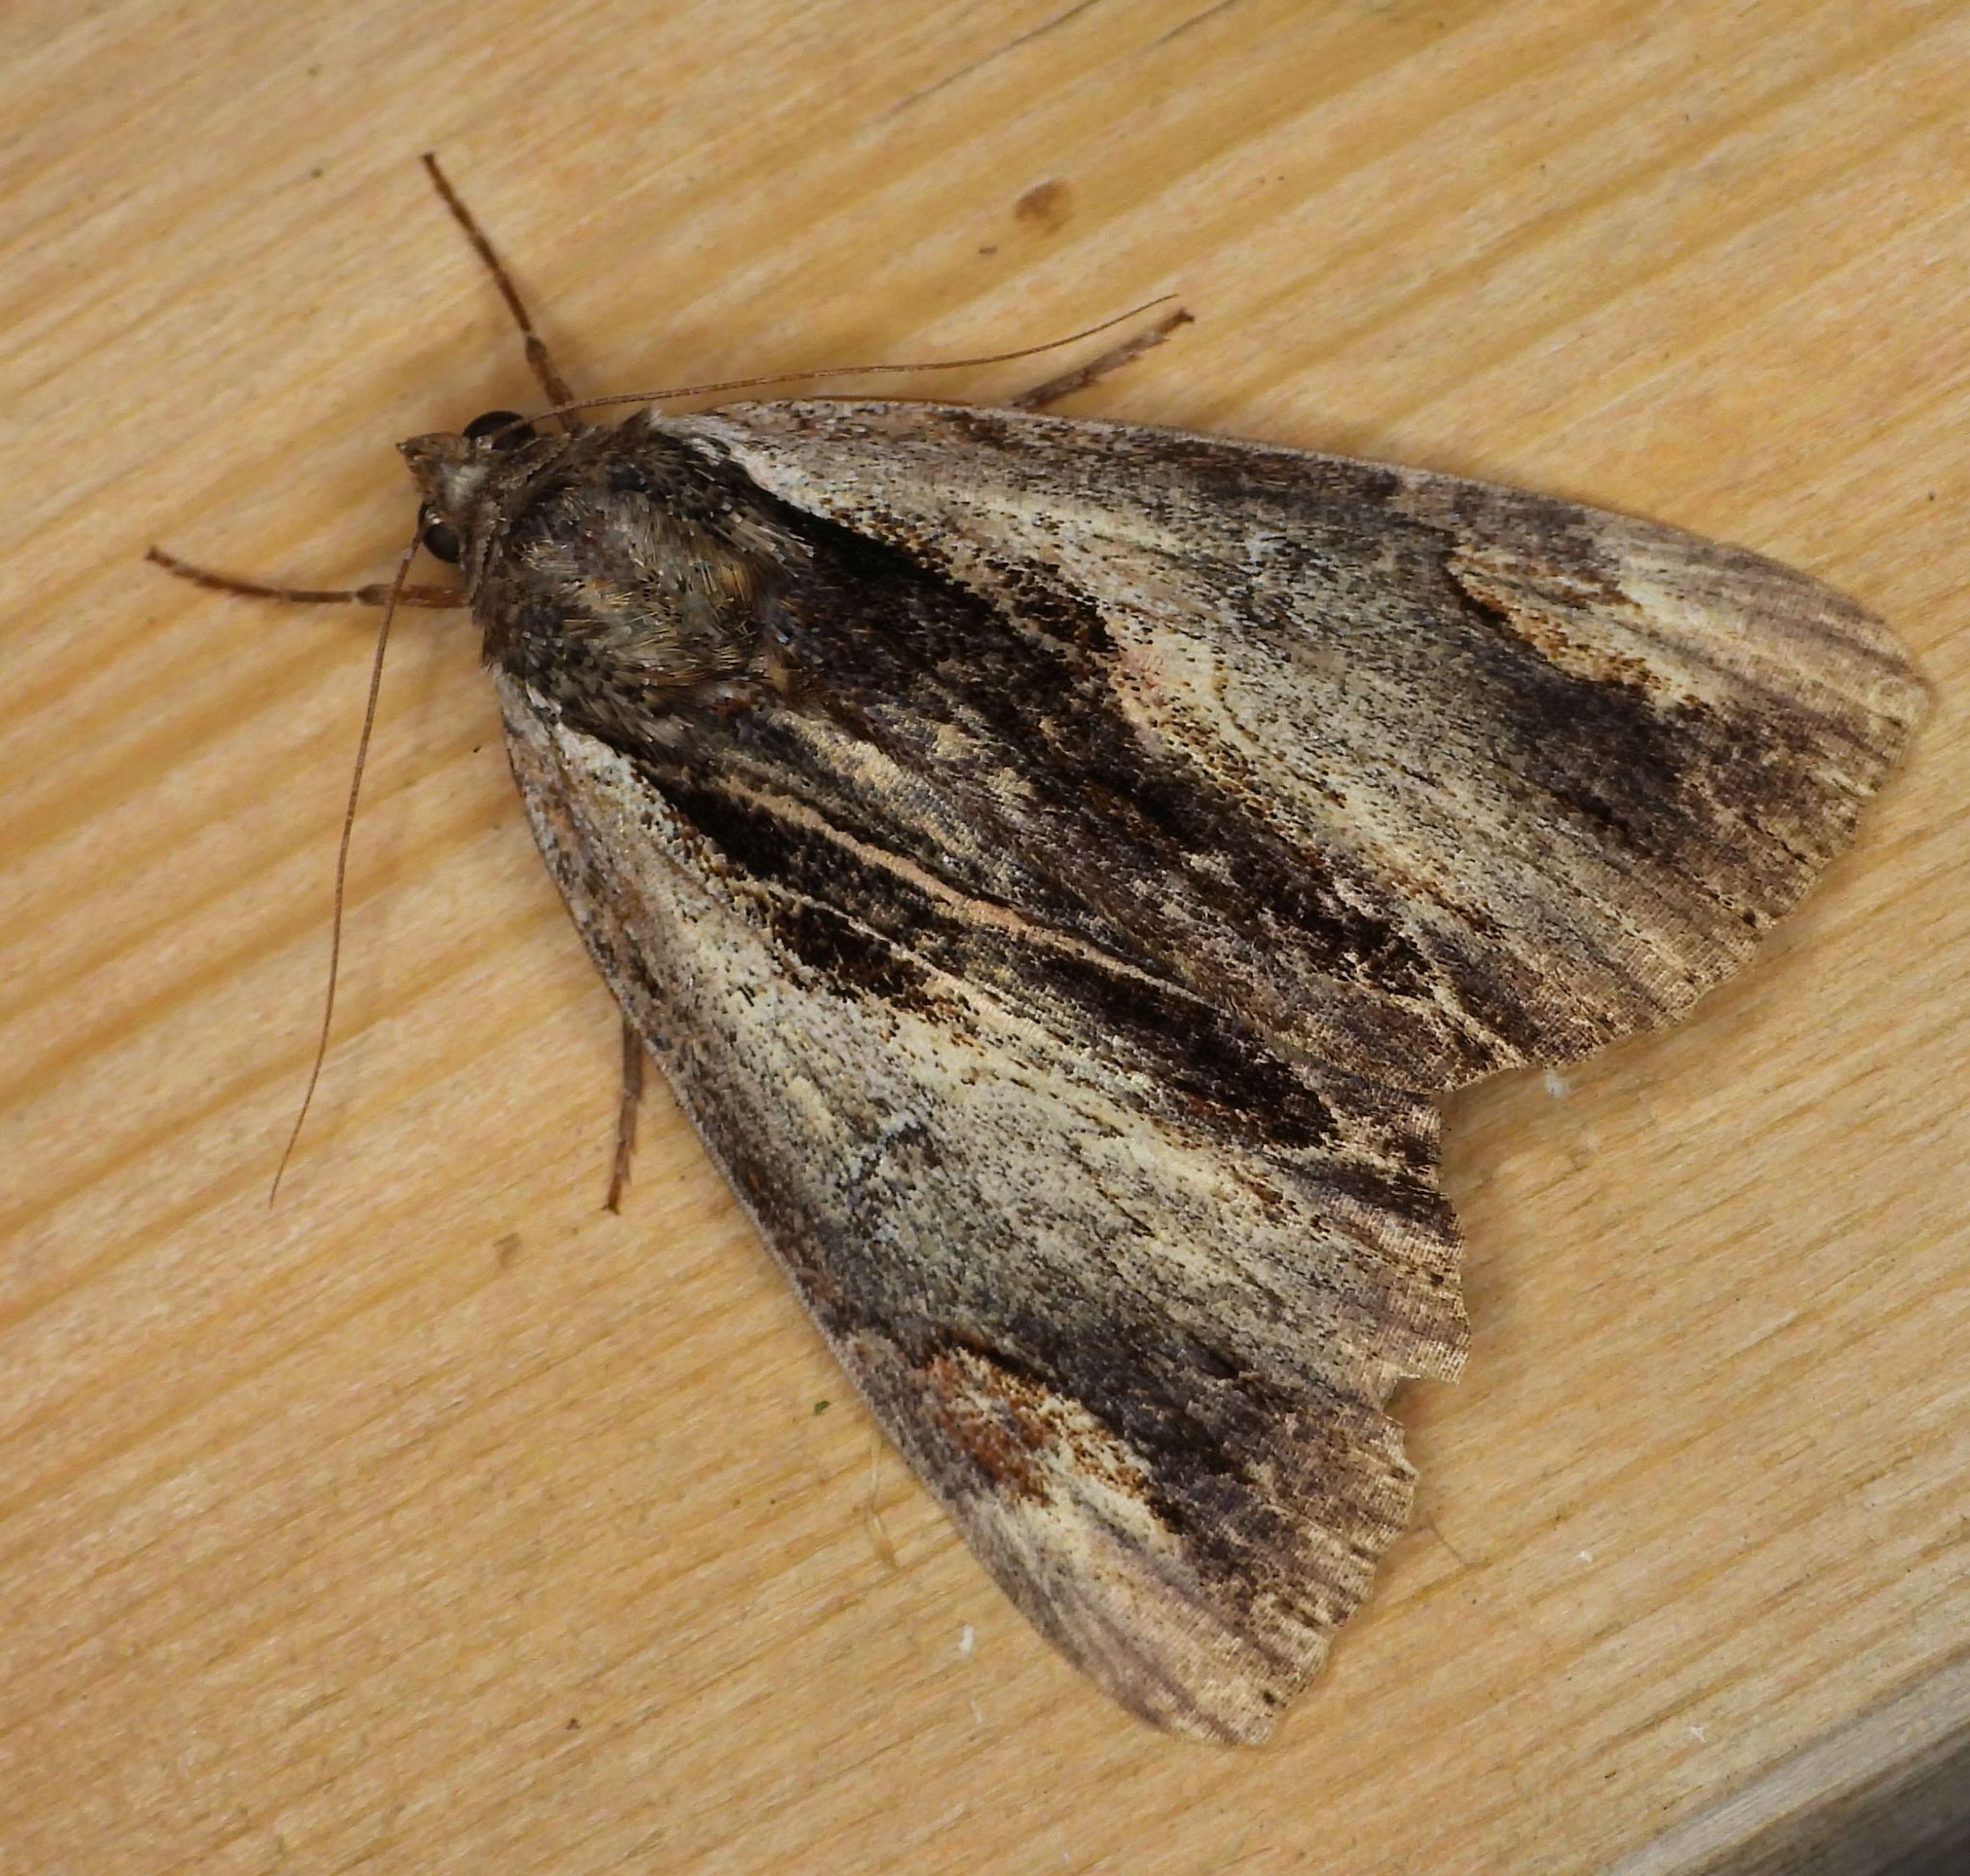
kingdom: Animalia
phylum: Arthropoda
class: Insecta
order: Lepidoptera
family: Erebidae
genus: Catocala
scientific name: Catocala ultronia
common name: Ultronia underwing
